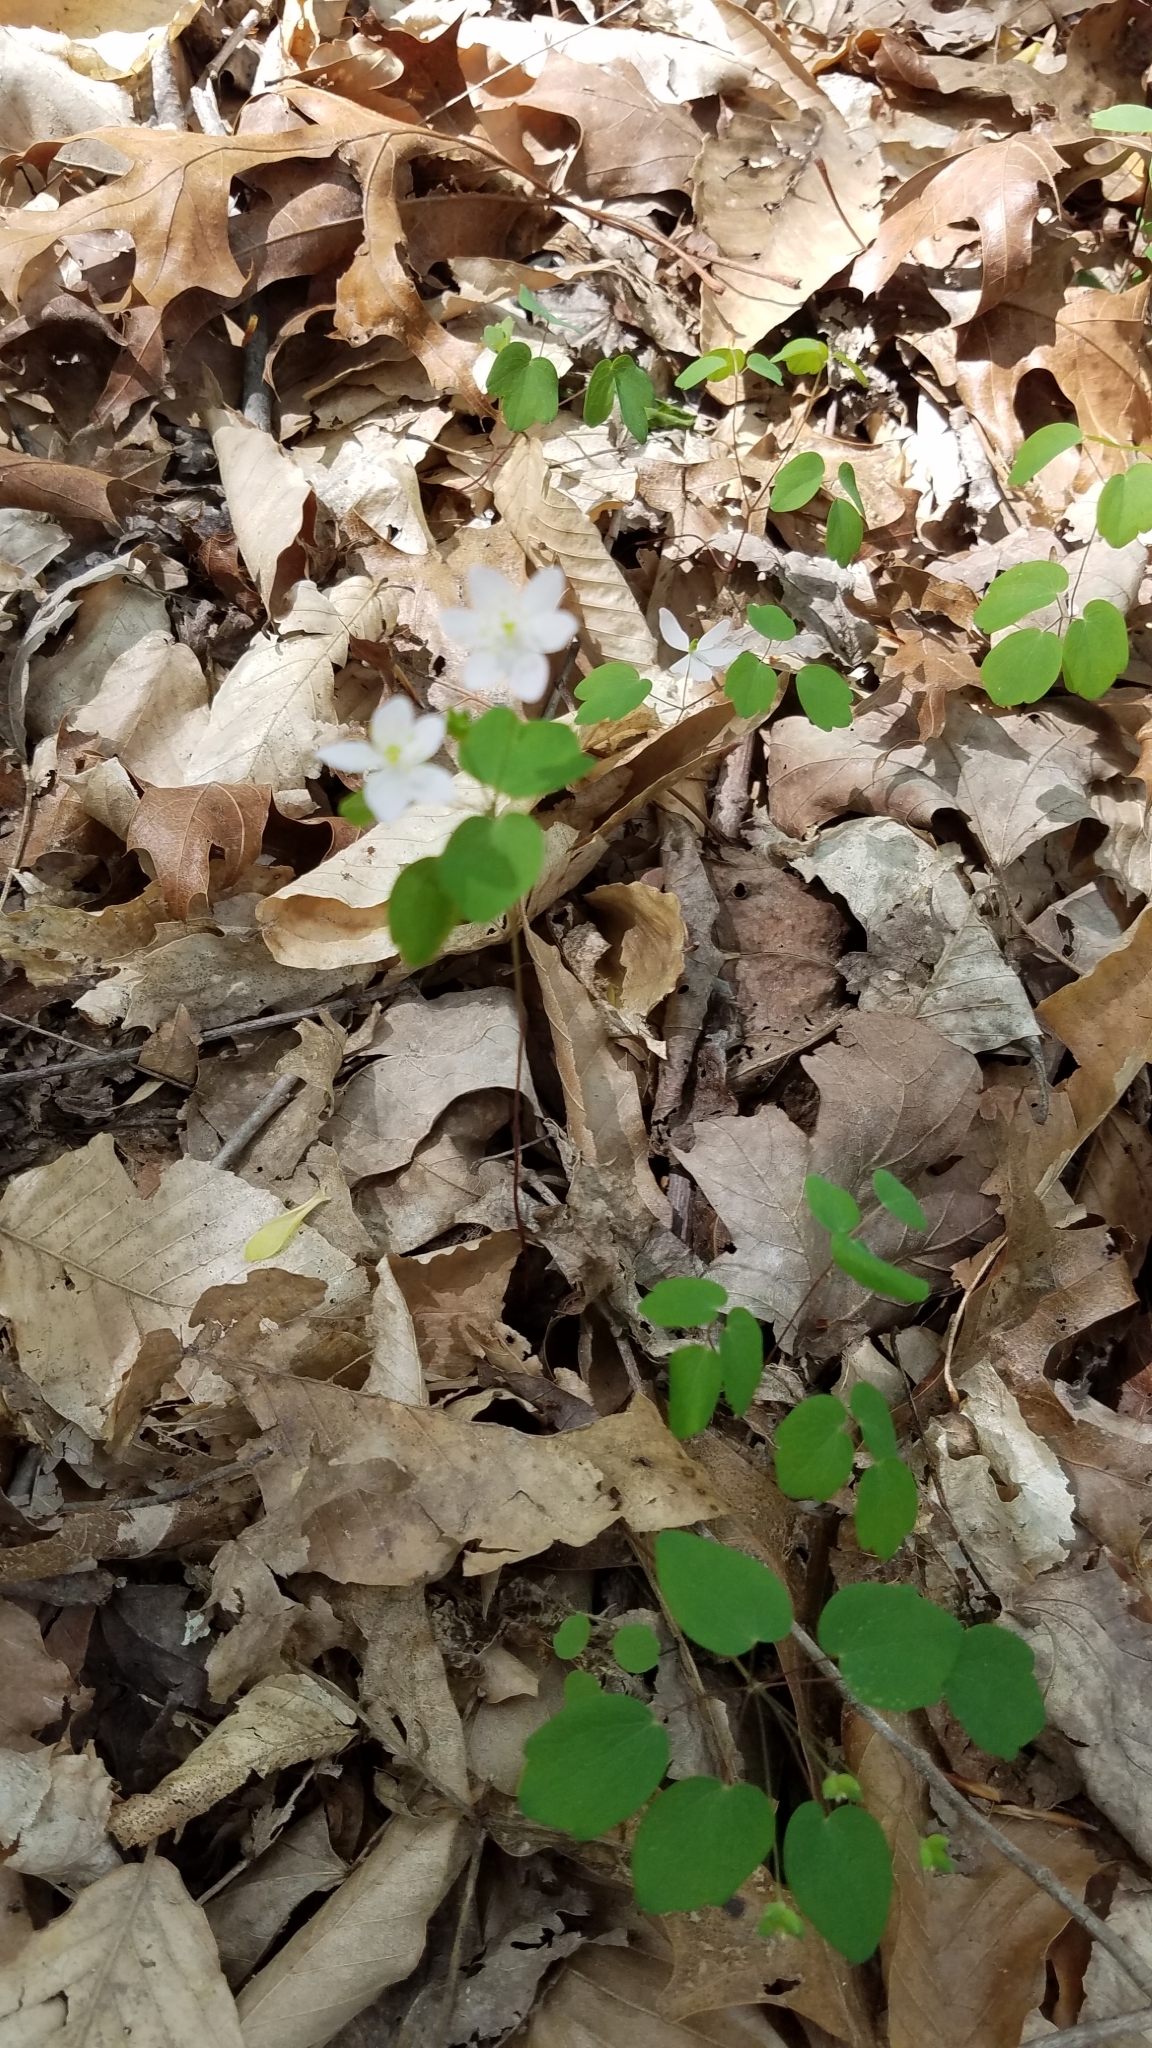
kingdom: Plantae
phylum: Tracheophyta
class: Magnoliopsida
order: Ranunculales
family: Ranunculaceae
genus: Thalictrum
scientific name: Thalictrum thalictroides
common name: Rue-anemone
